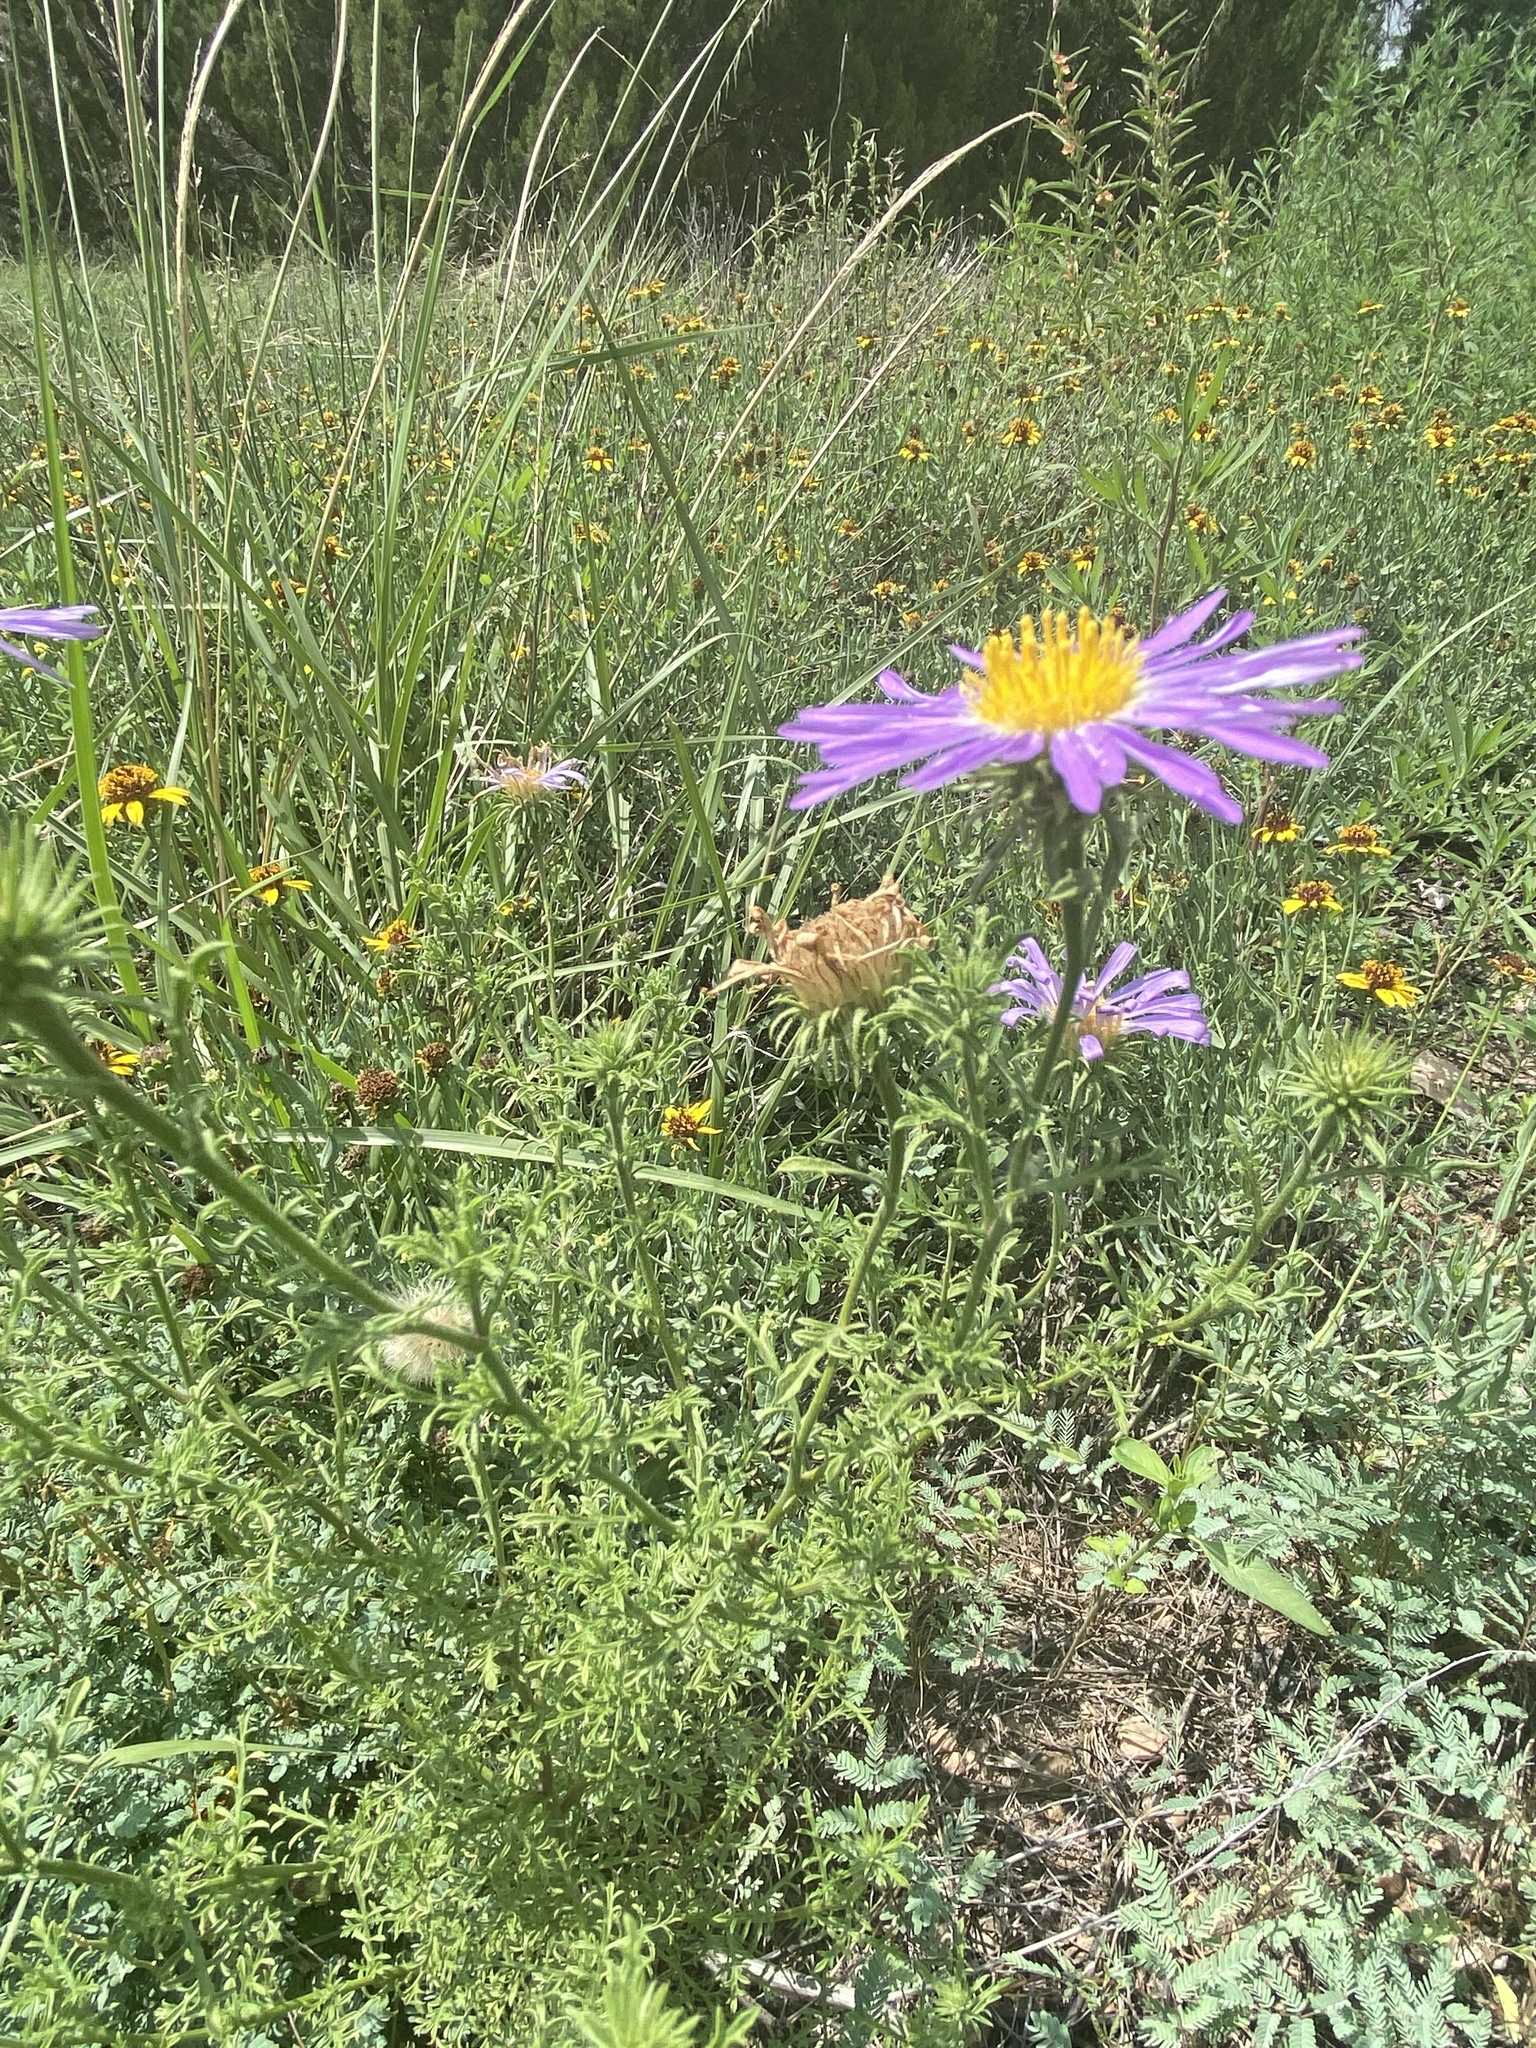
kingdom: Plantae
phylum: Tracheophyta
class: Magnoliopsida
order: Asterales
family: Asteraceae
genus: Machaeranthera
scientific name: Machaeranthera tanacetifolia
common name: Tansy-aster
